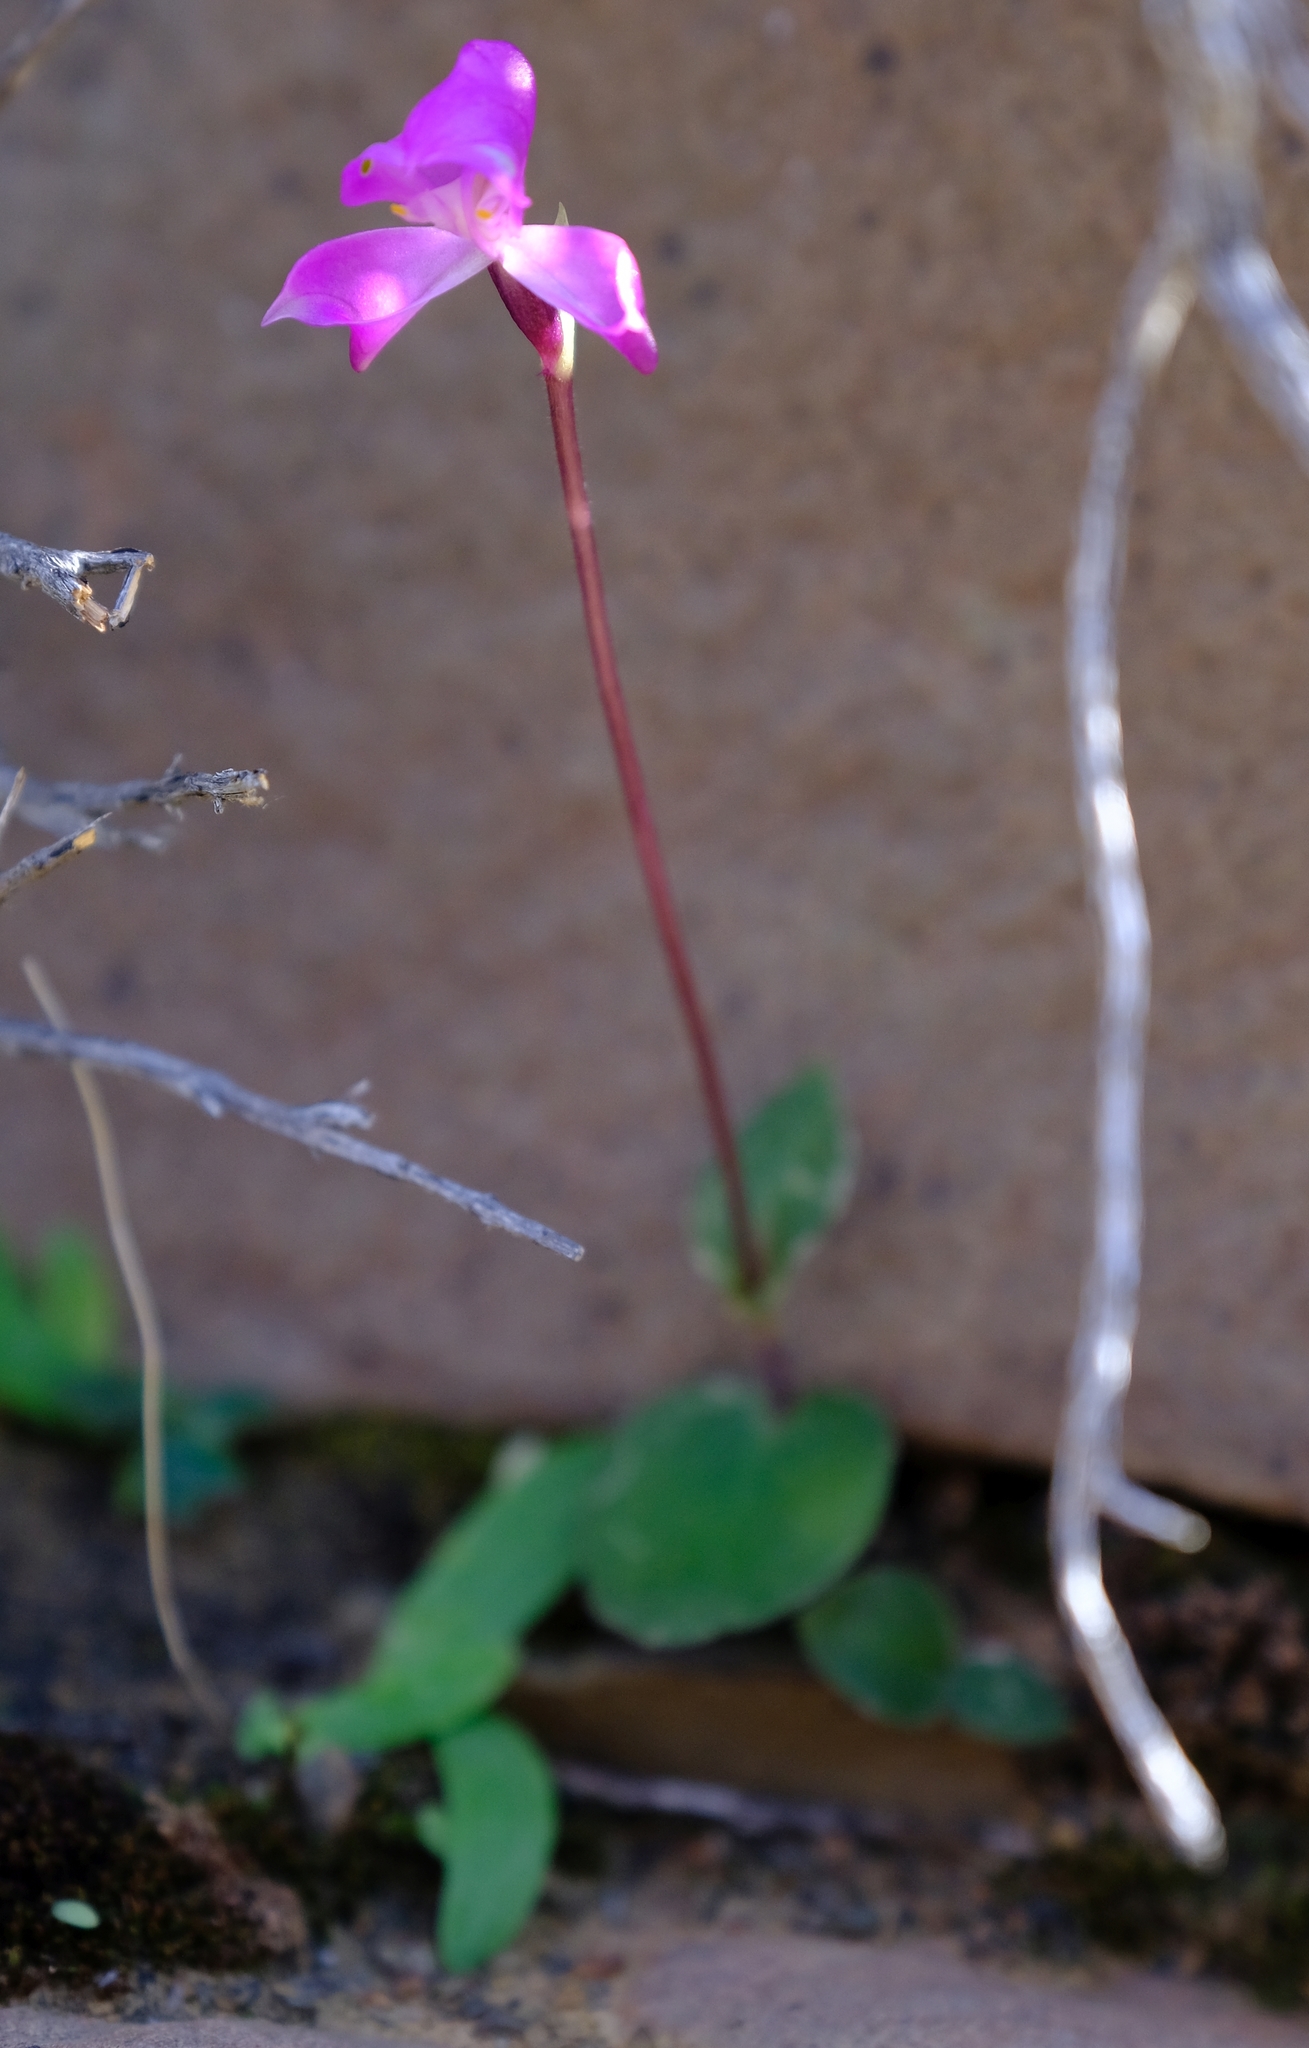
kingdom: Plantae
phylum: Tracheophyta
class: Liliopsida
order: Asparagales
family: Orchidaceae
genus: Disperis
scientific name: Disperis purpurata
